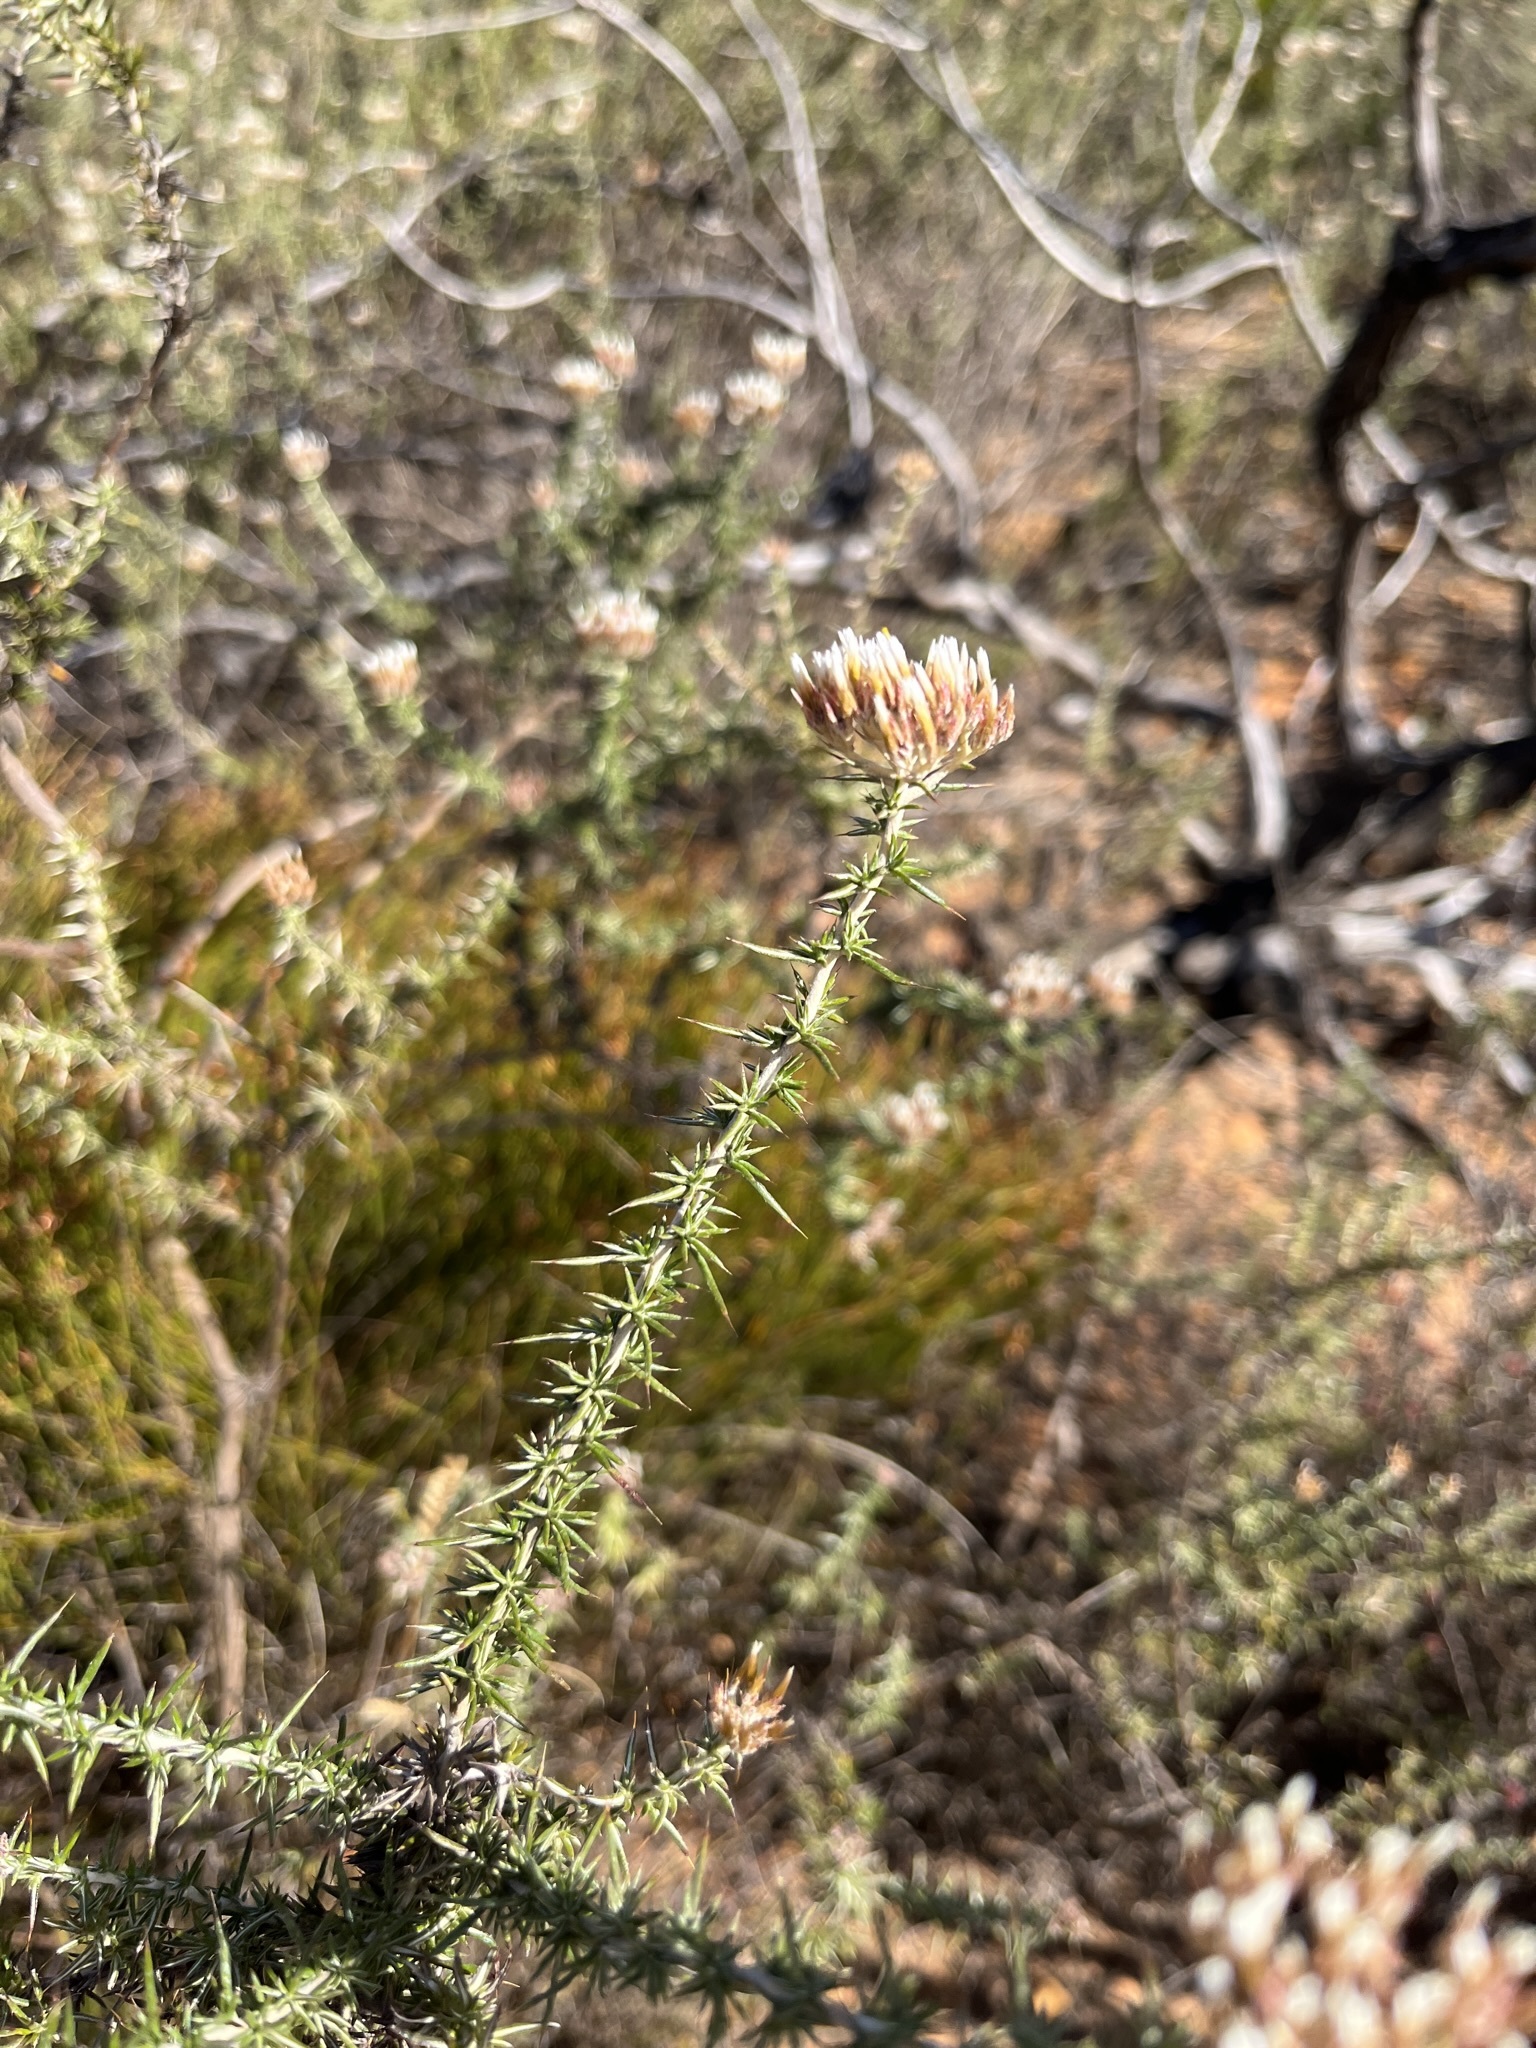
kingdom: Plantae
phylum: Tracheophyta
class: Magnoliopsida
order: Asterales
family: Asteraceae
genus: Metalasia
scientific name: Metalasia acuta
